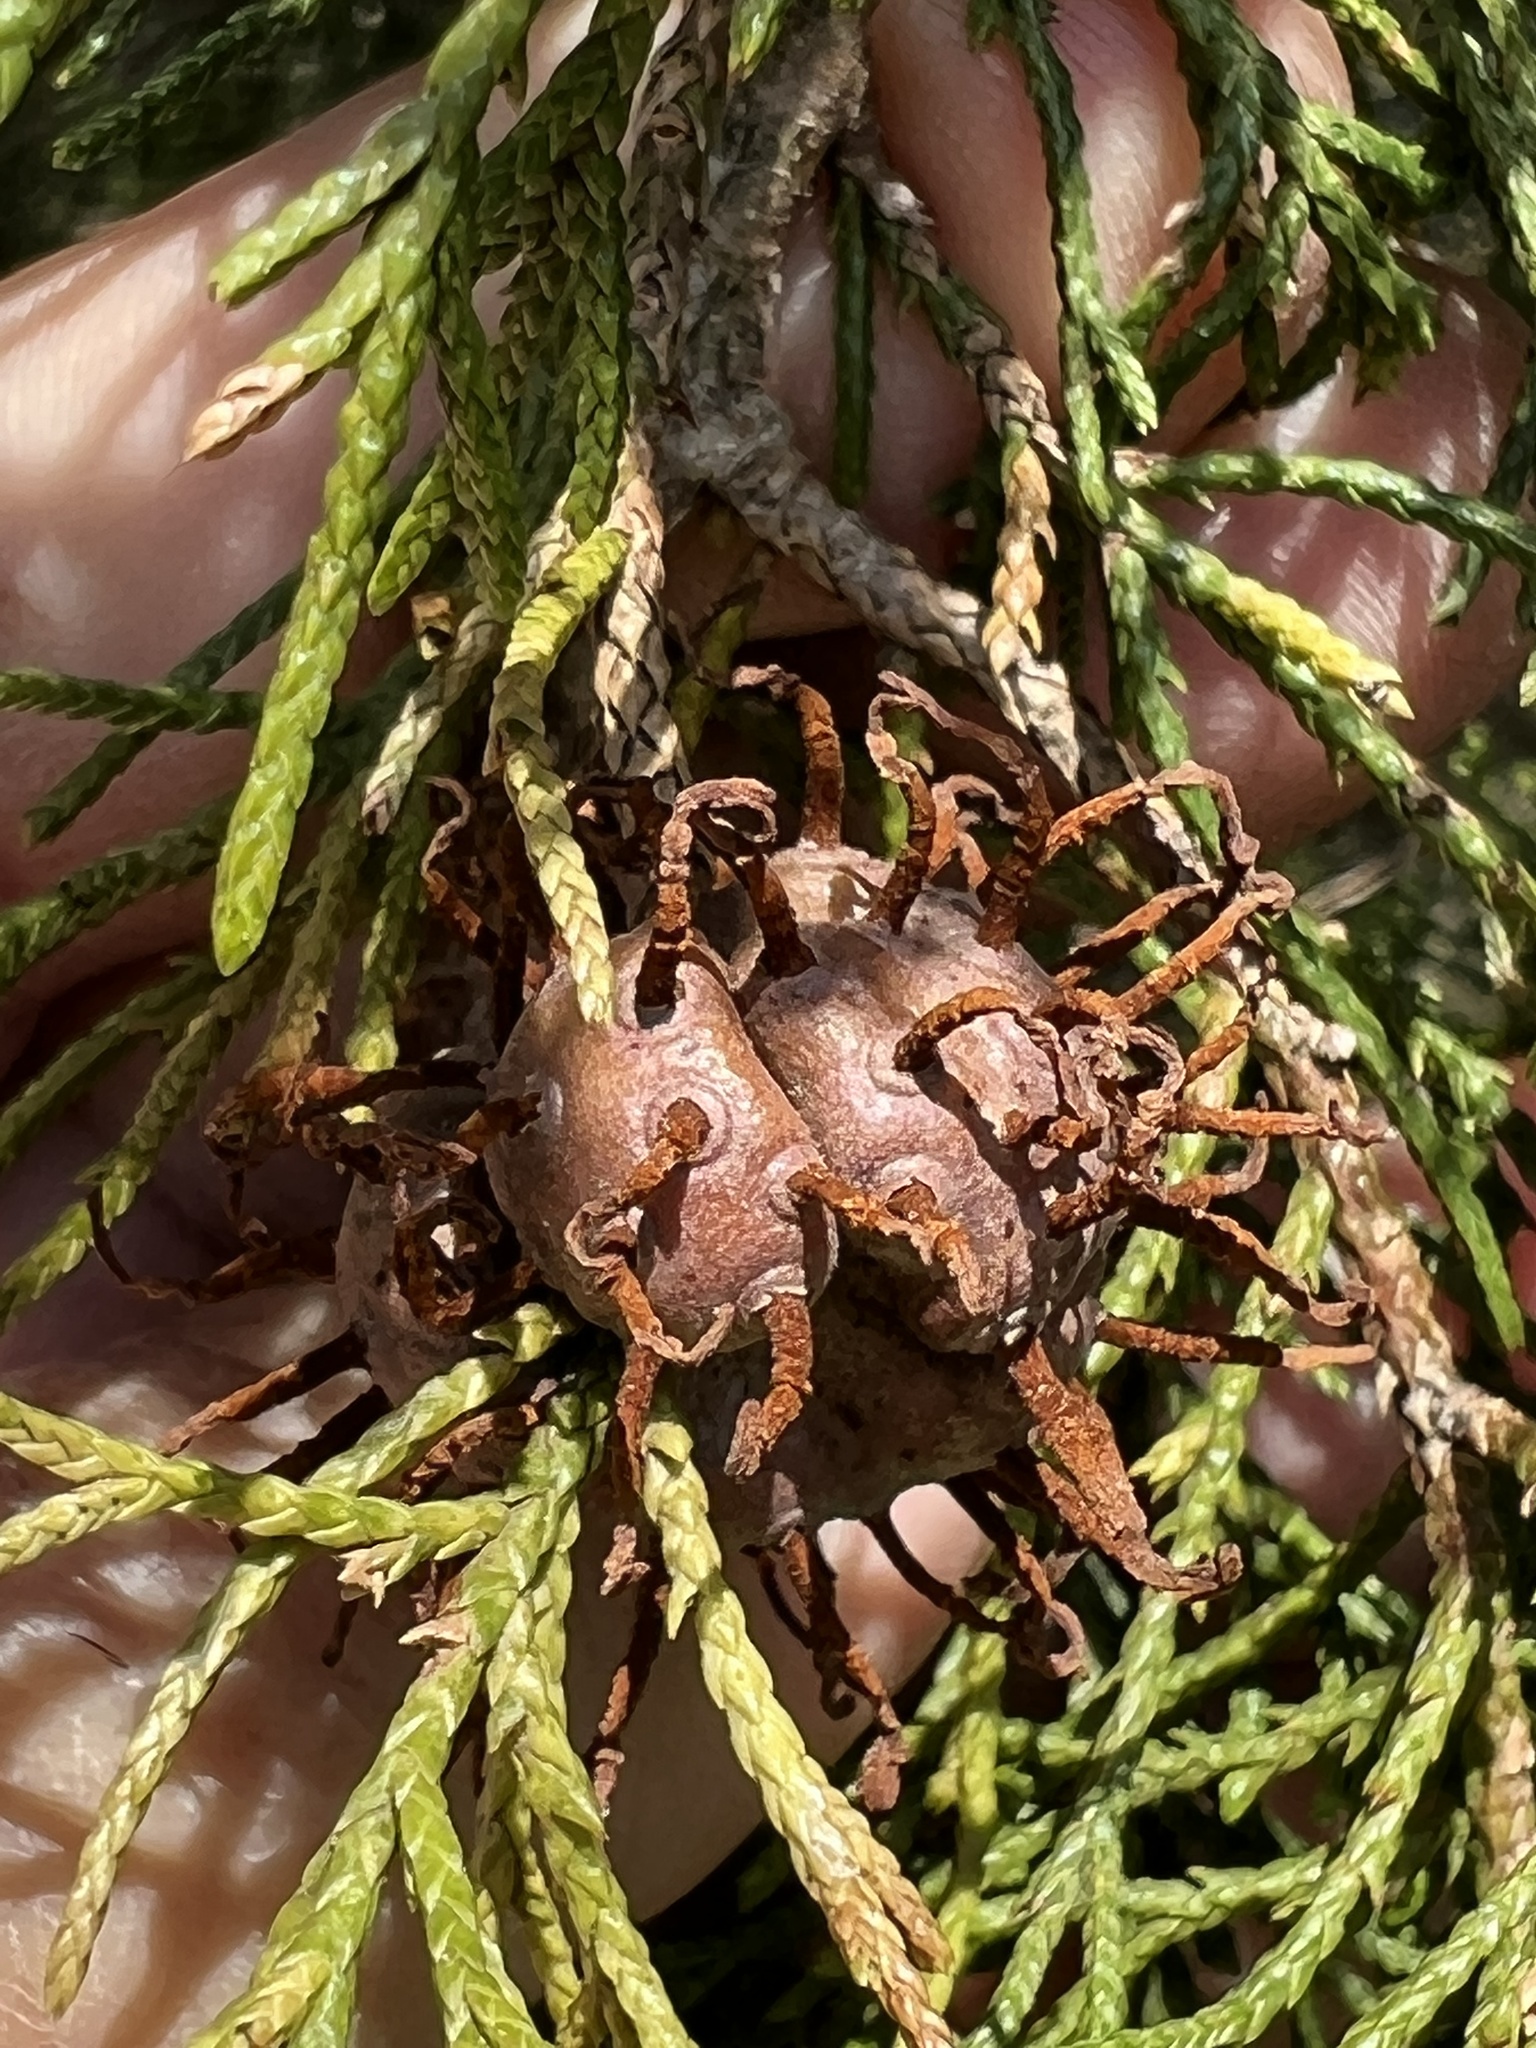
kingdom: Fungi
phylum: Basidiomycota
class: Pucciniomycetes
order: Pucciniales
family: Gymnosporangiaceae
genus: Gymnosporangium
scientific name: Gymnosporangium juniperi-virginianae
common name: Juniper-apple rust
